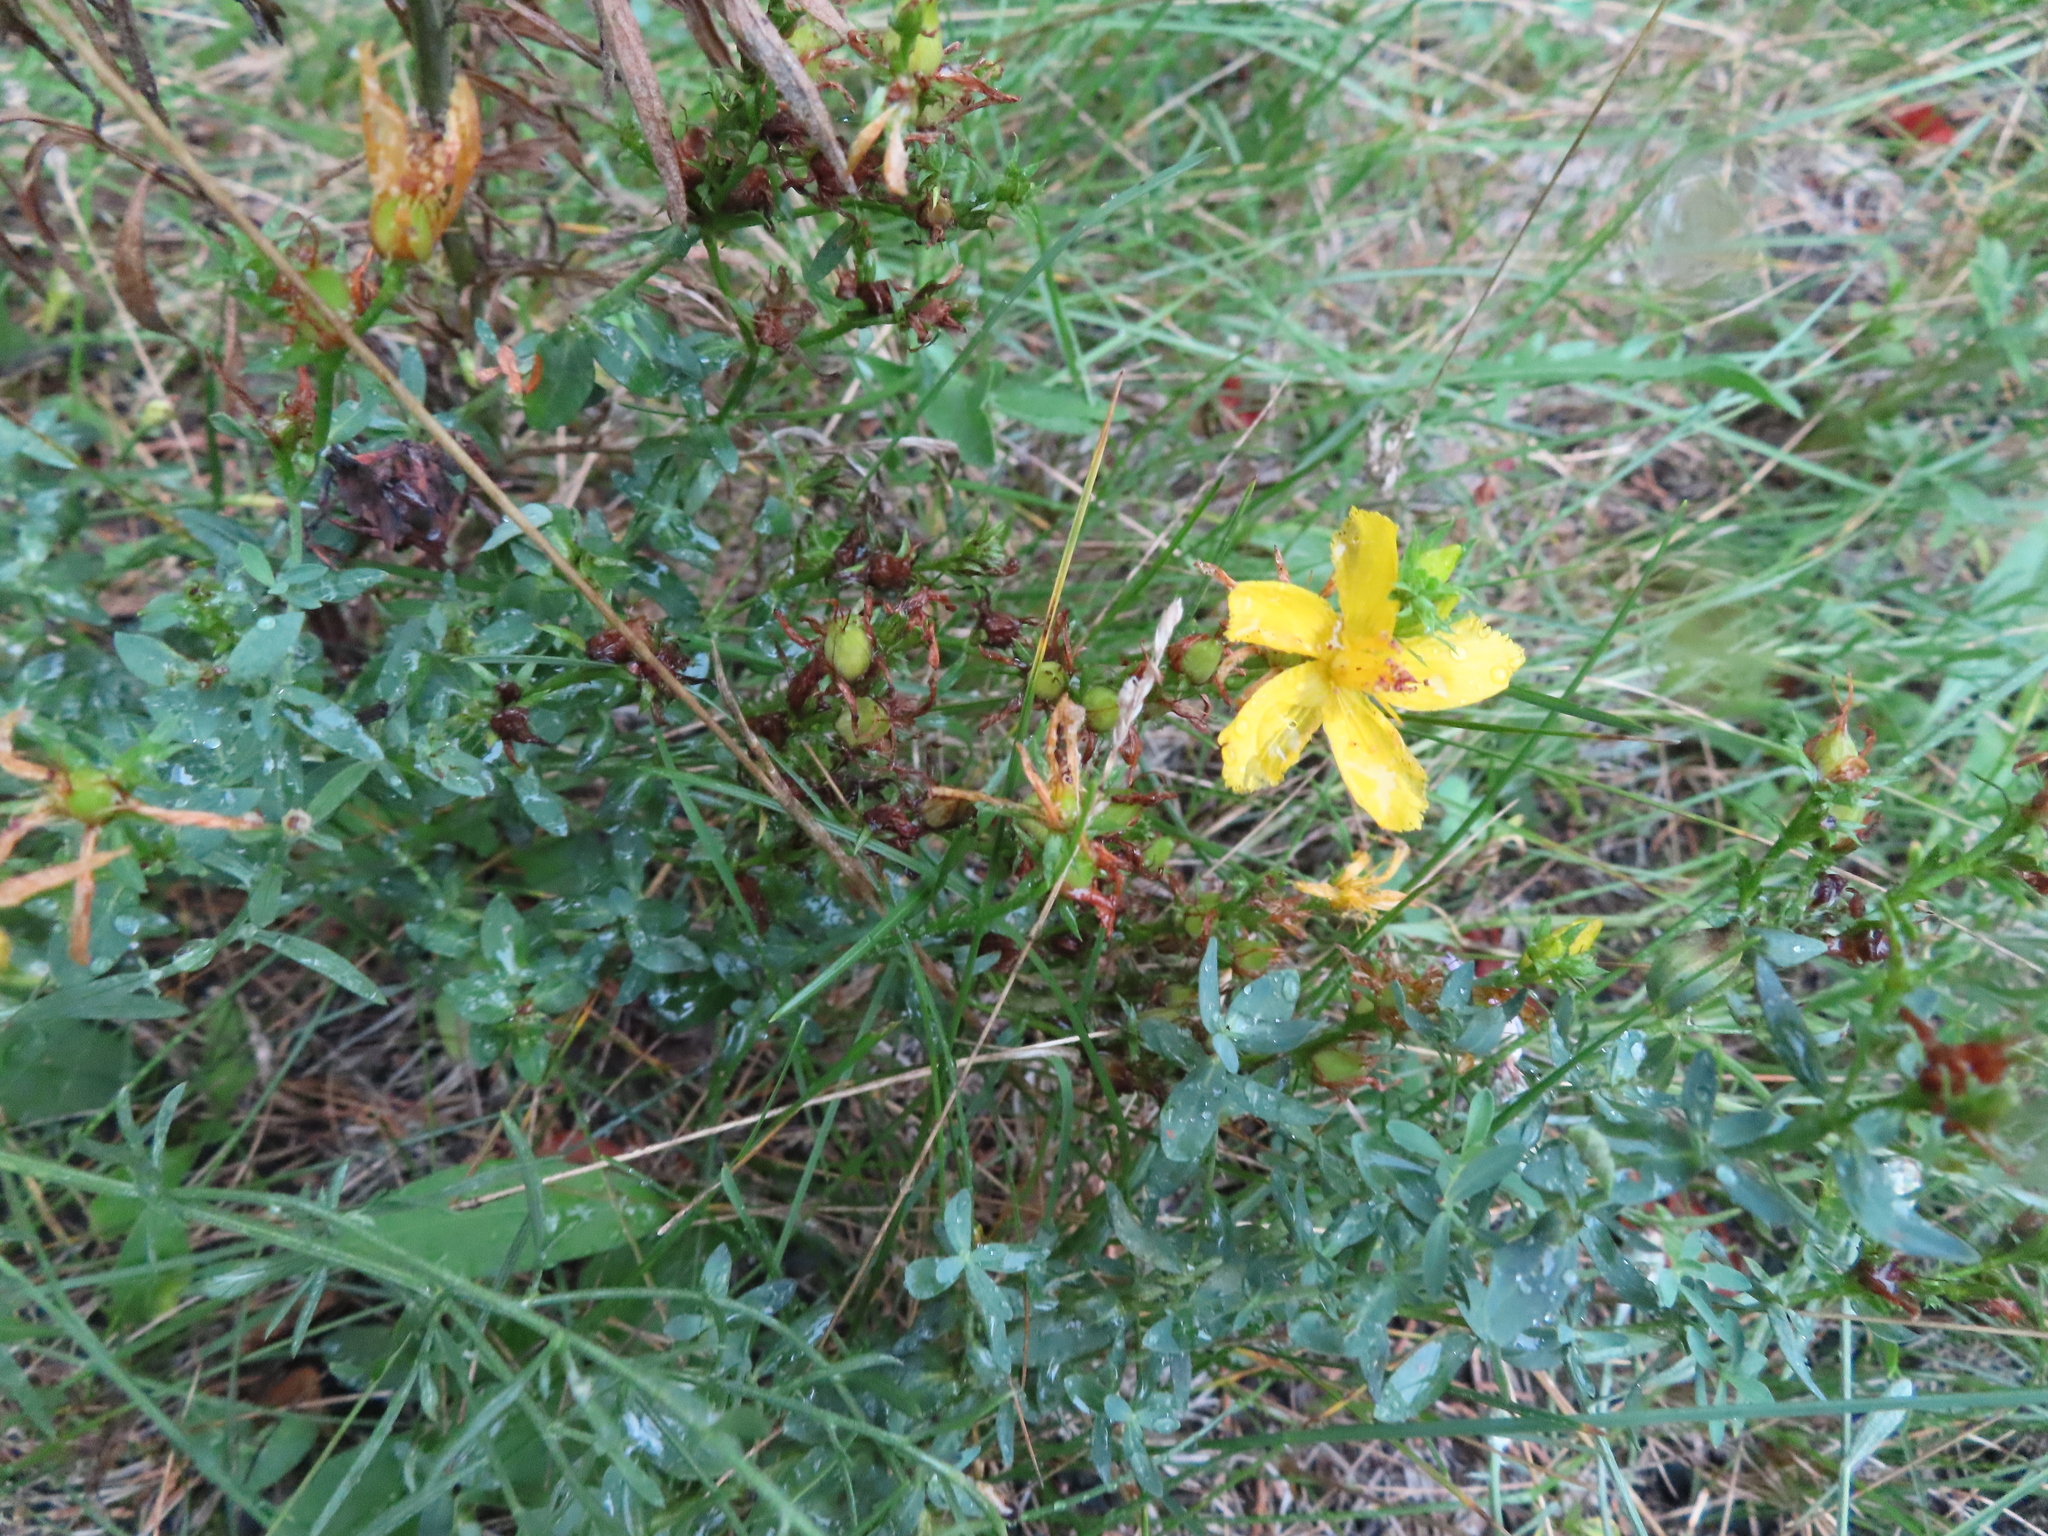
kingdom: Plantae
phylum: Tracheophyta
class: Magnoliopsida
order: Malpighiales
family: Hypericaceae
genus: Hypericum
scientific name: Hypericum perforatum
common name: Common st. johnswort
